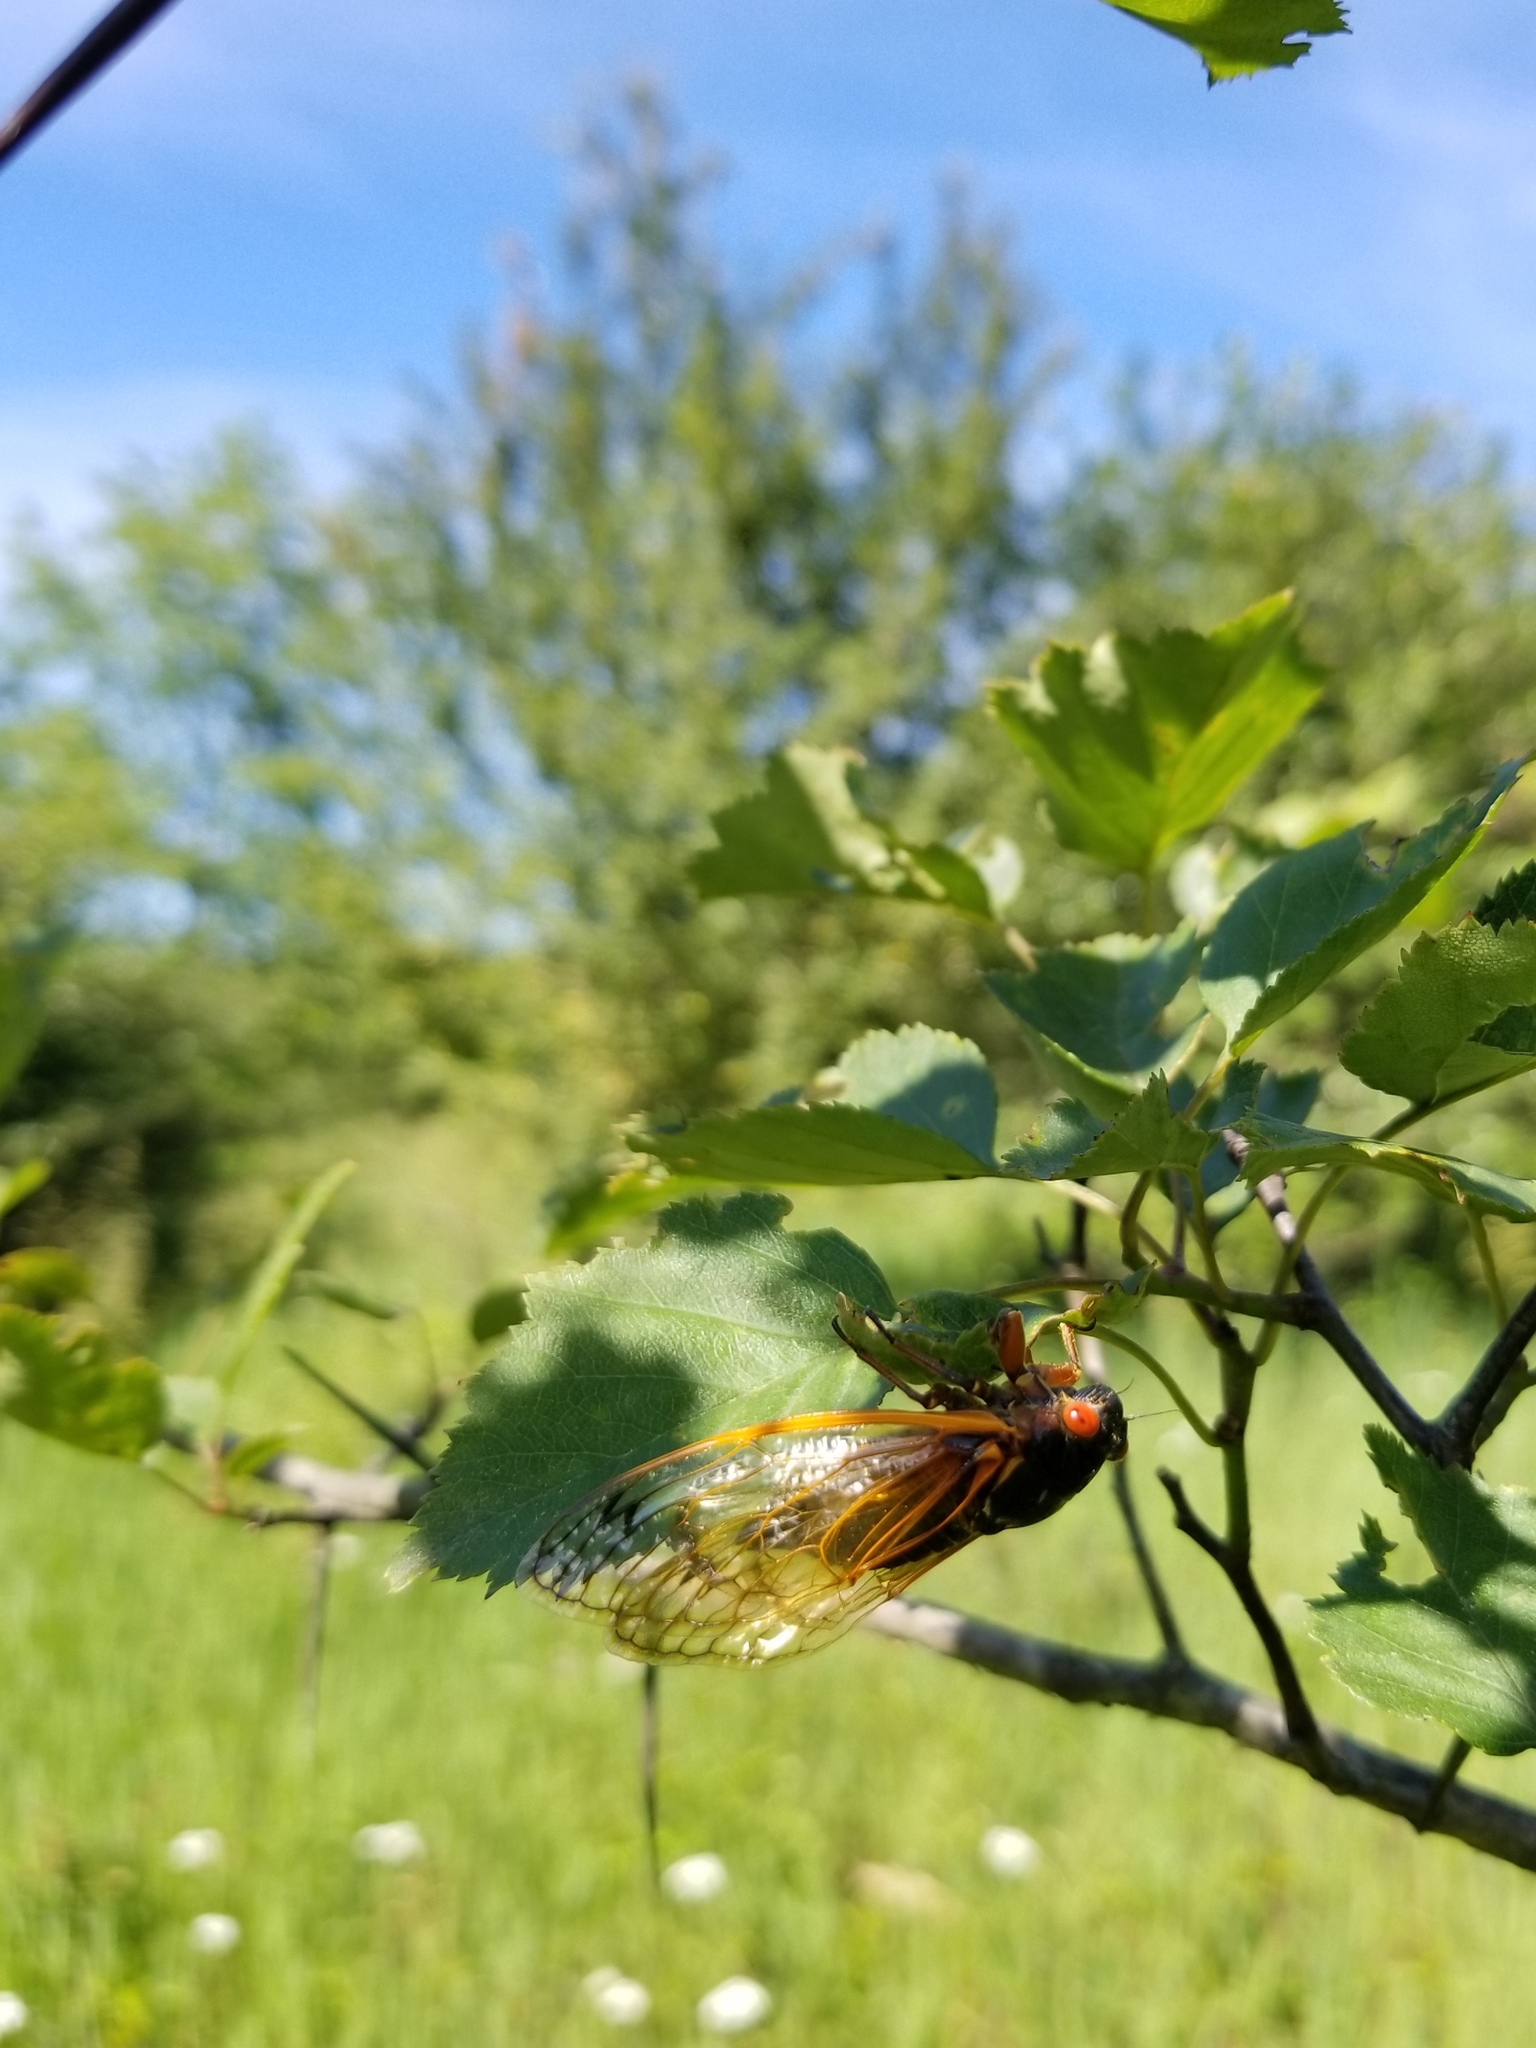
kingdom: Animalia
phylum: Arthropoda
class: Insecta
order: Hemiptera
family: Cicadidae
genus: Magicicada
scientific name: Magicicada septendecim
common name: Periodical cicada
